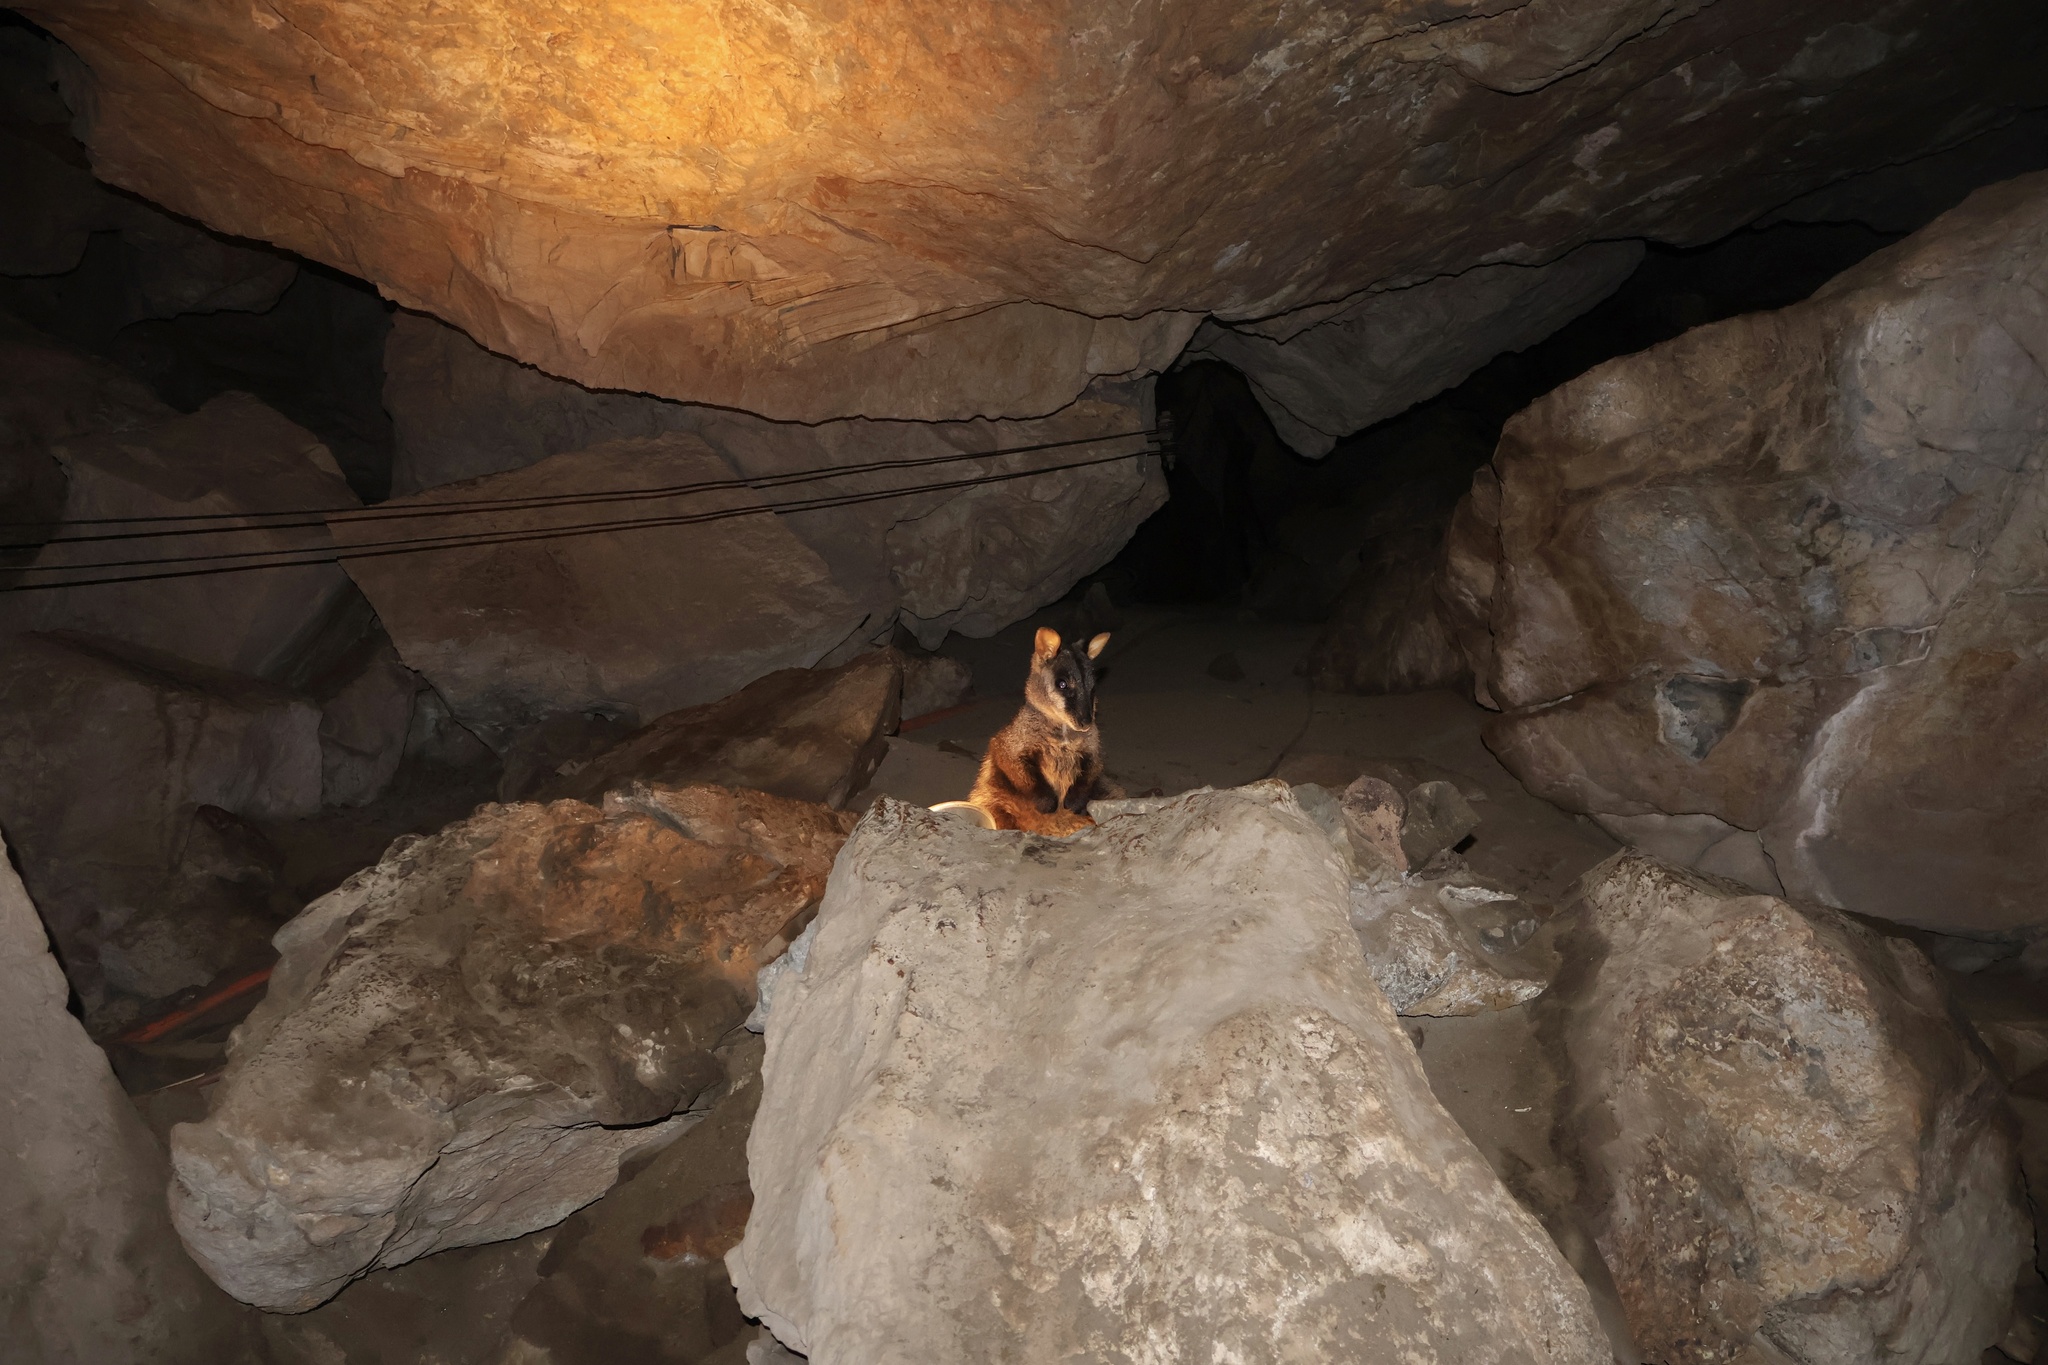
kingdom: Animalia
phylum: Chordata
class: Mammalia
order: Diprotodontia
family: Macropodidae
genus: Petrogale
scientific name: Petrogale penicillata
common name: Brush-tailed rock-wallaby
